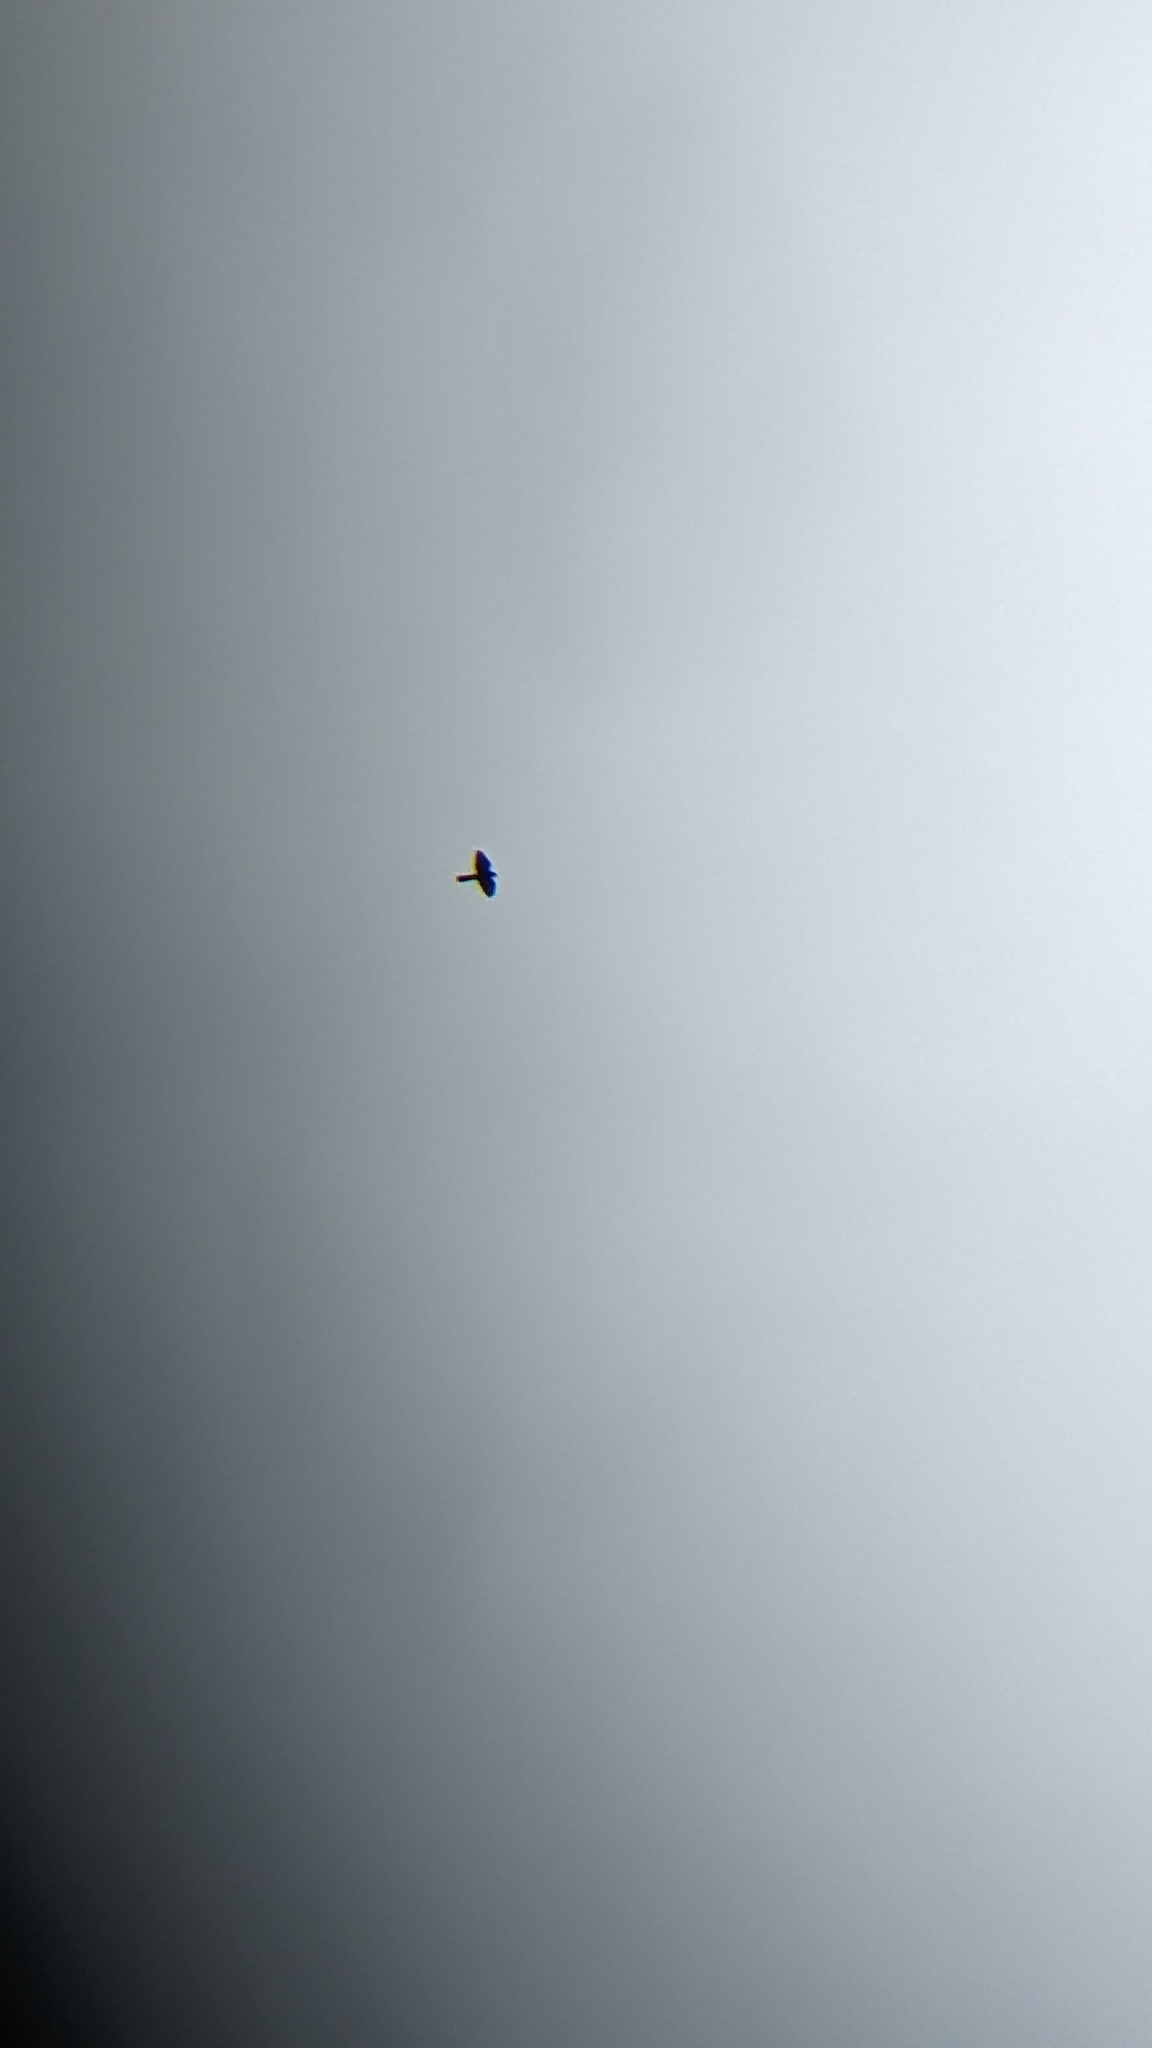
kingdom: Animalia
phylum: Chordata
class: Aves
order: Falconiformes
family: Falconidae
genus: Falco
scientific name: Falco novaeseelandiae
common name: New zealand falcon
